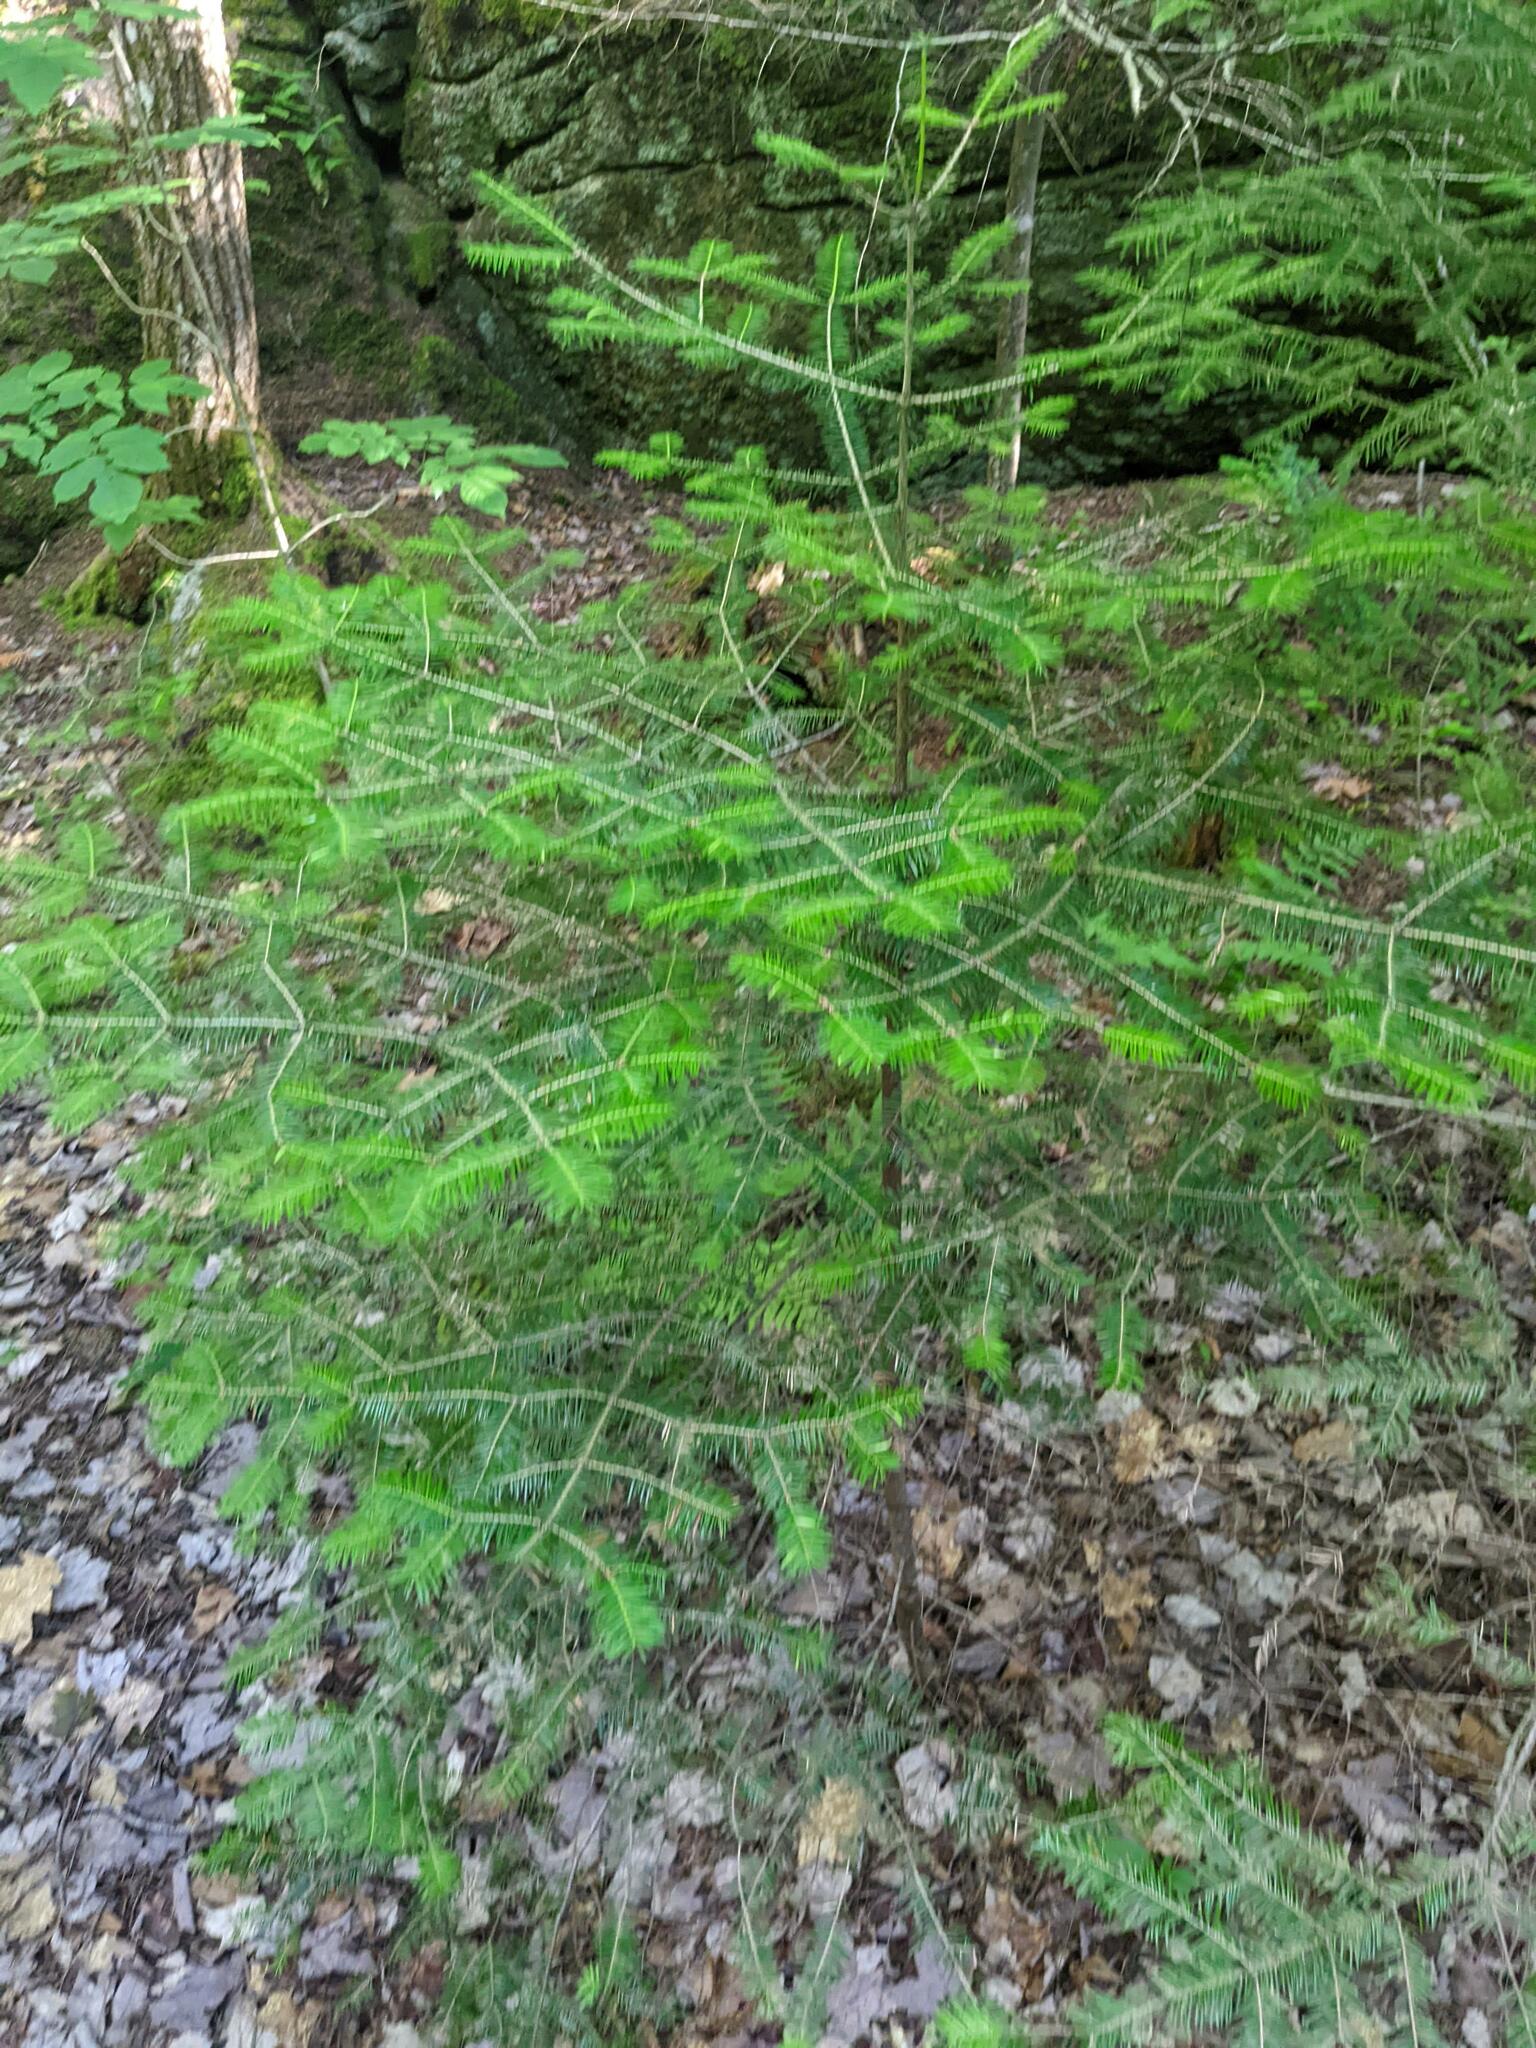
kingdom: Plantae
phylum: Tracheophyta
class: Pinopsida
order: Pinales
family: Pinaceae
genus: Abies
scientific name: Abies balsamea
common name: Balsam fir
